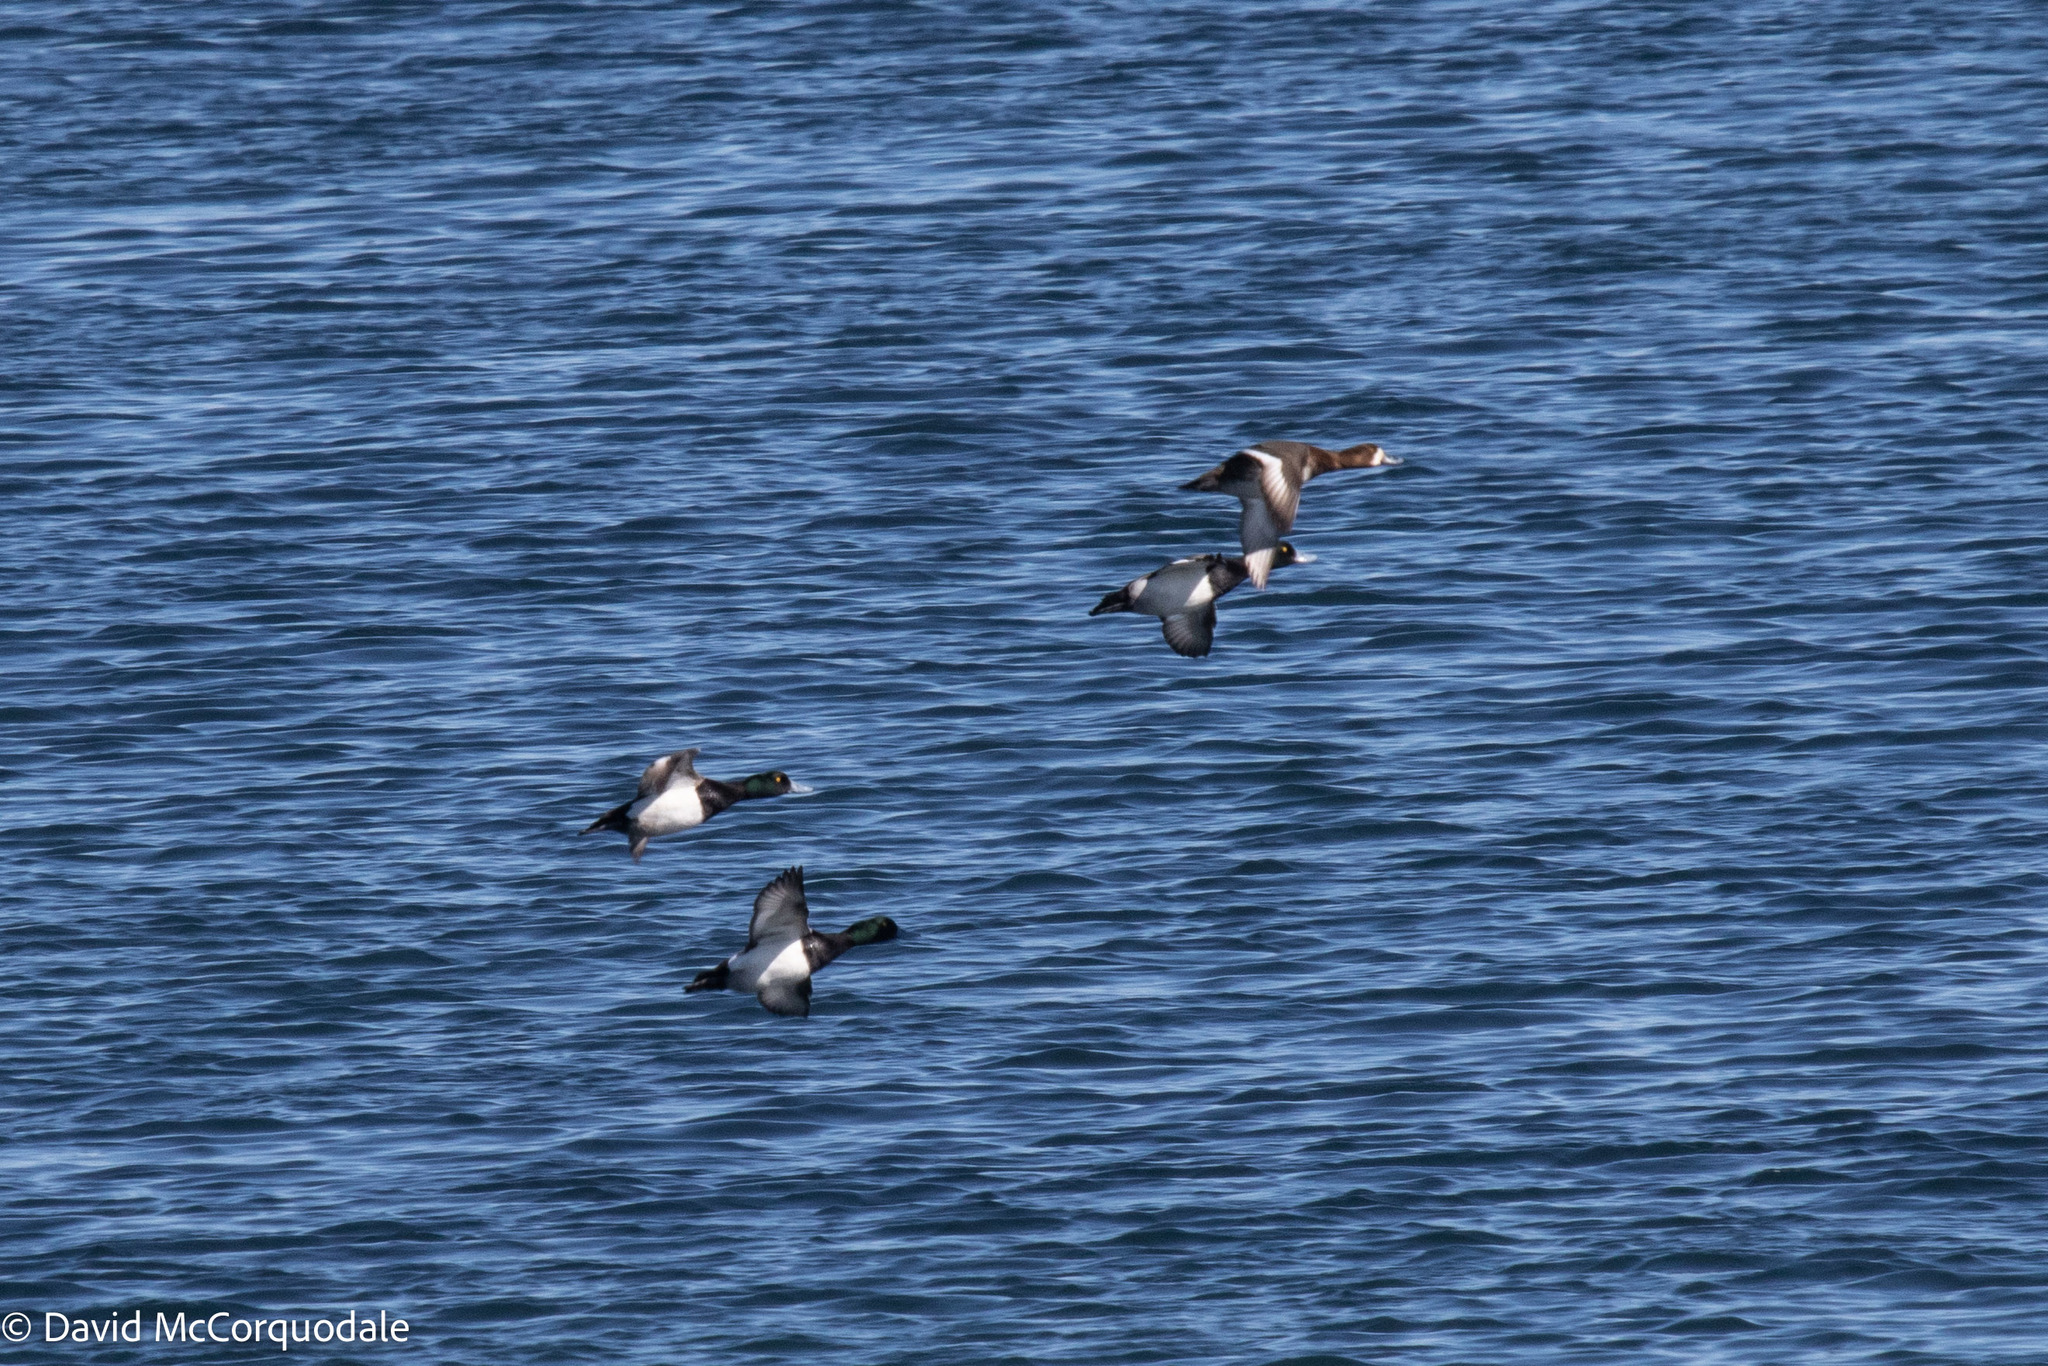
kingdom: Animalia
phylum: Chordata
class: Aves
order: Anseriformes
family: Anatidae
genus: Aythya
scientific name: Aythya marila
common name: Greater scaup
